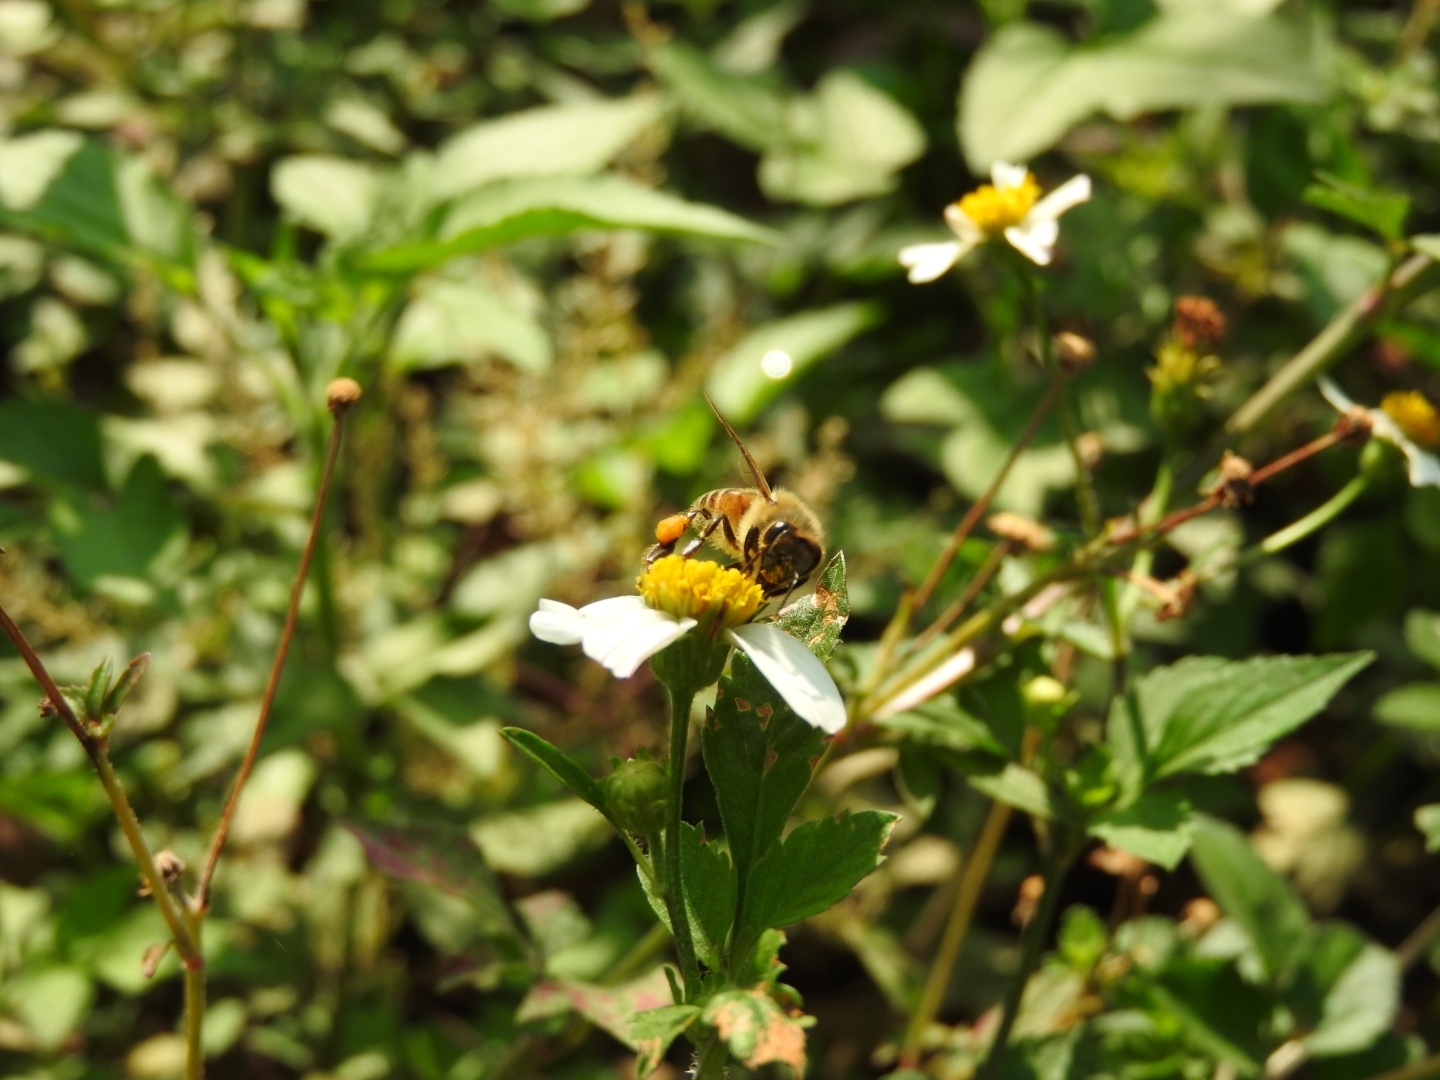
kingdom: Animalia
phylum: Arthropoda
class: Insecta
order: Hymenoptera
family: Apidae
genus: Apis
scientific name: Apis mellifera
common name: Honey bee
